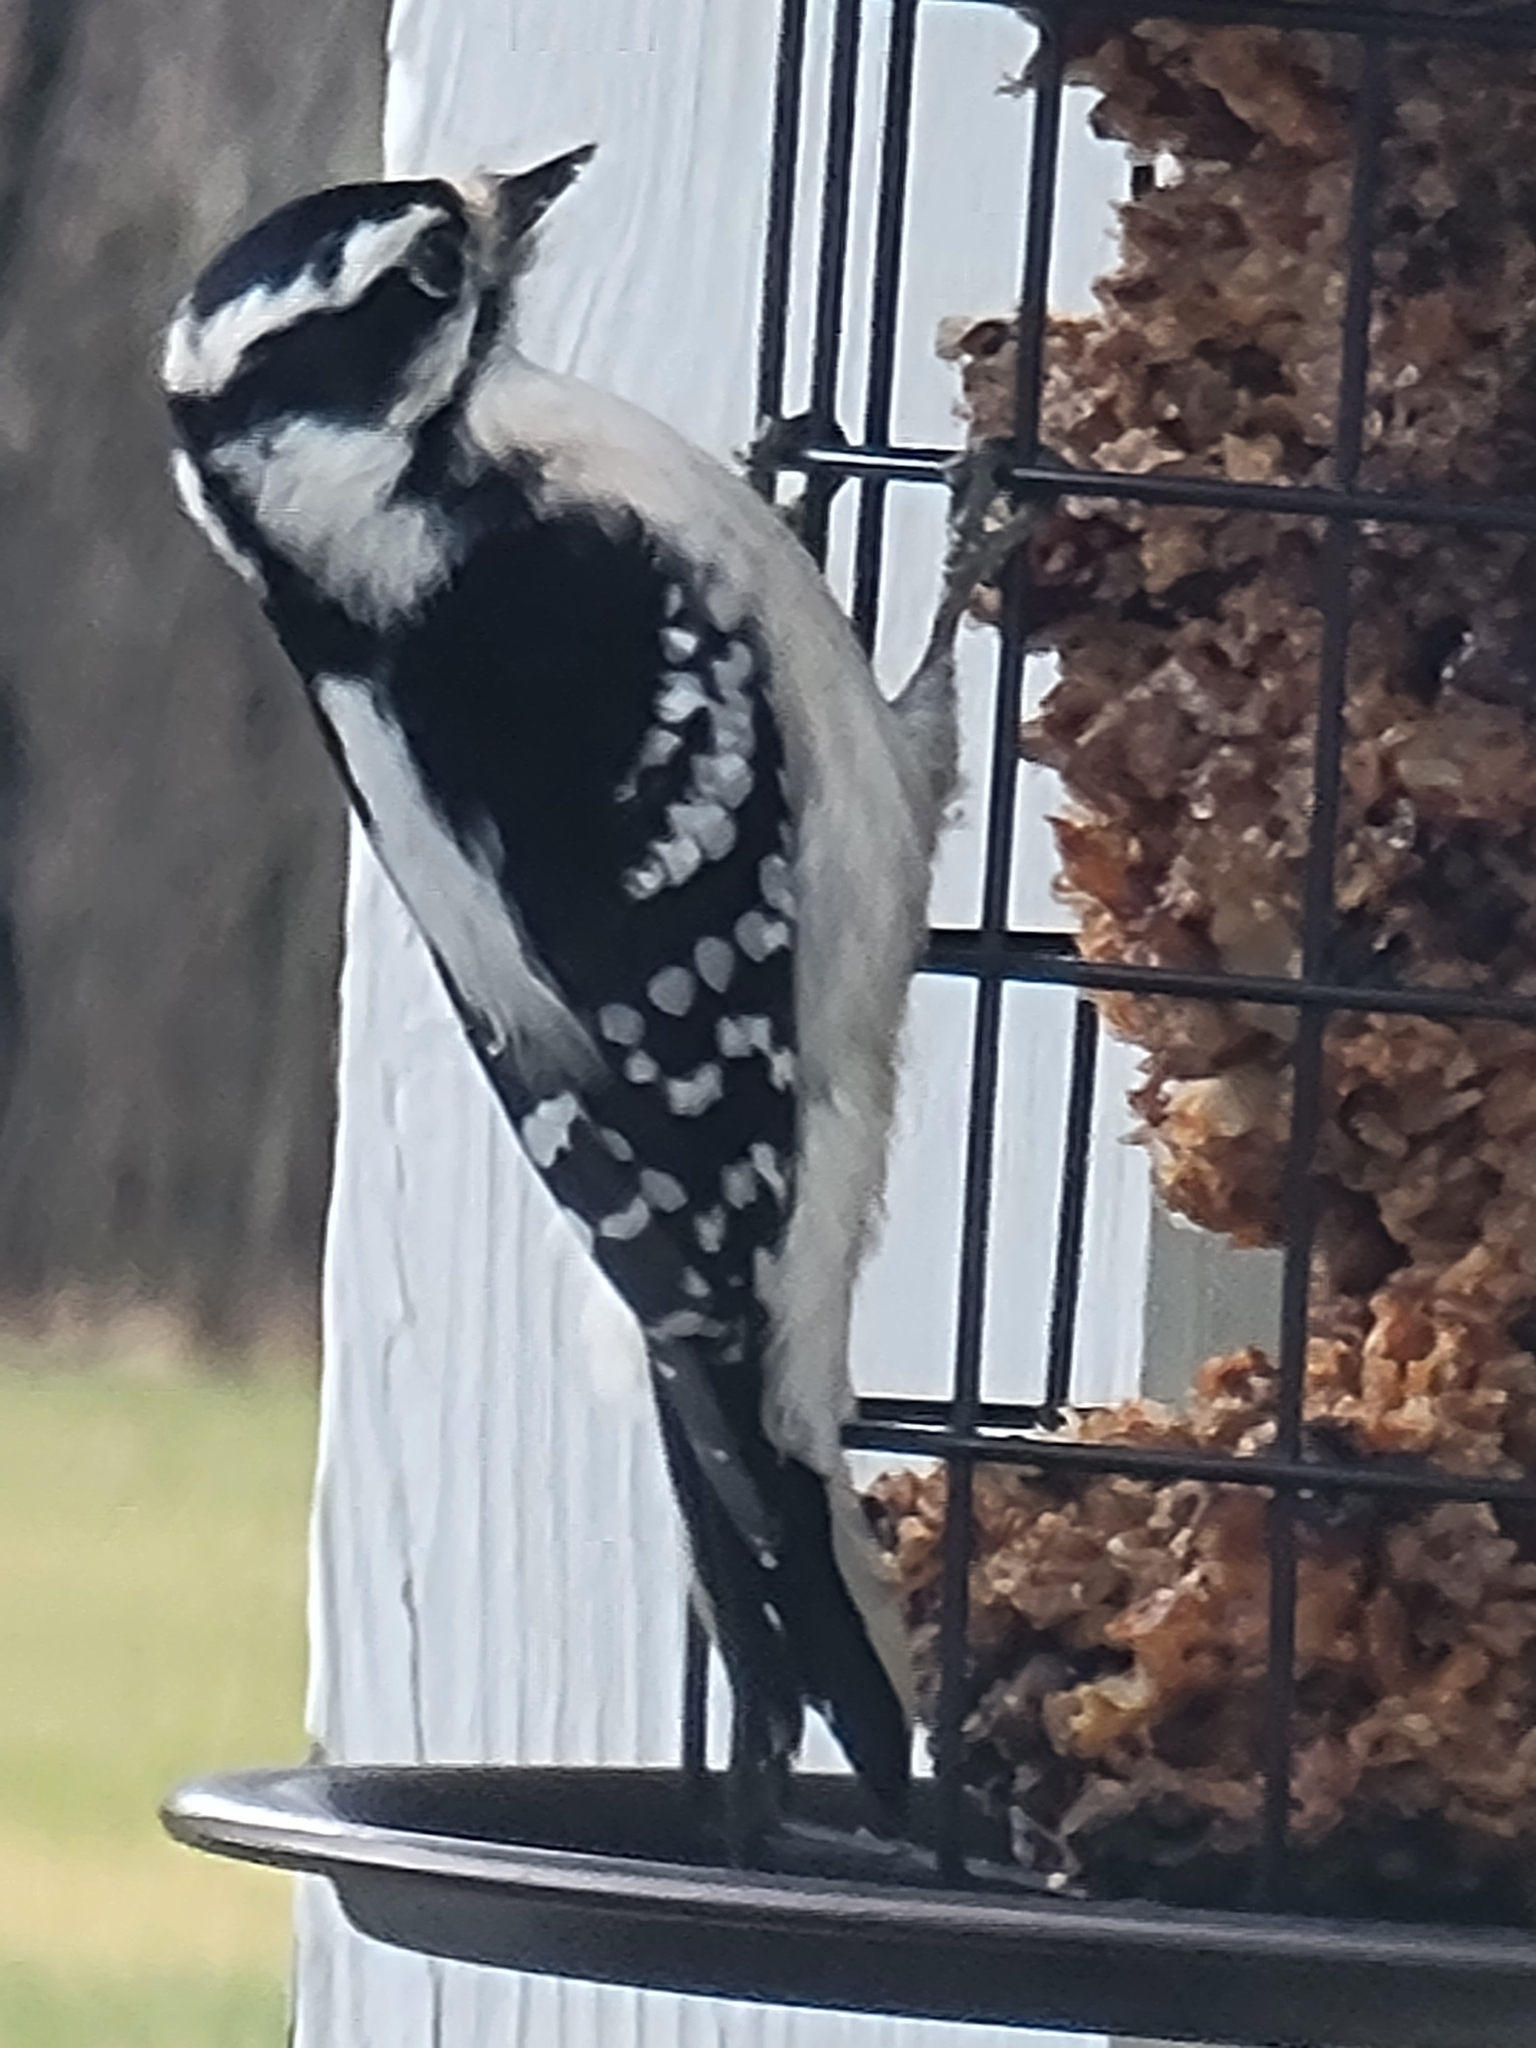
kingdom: Animalia
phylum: Chordata
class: Aves
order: Piciformes
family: Picidae
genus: Dryobates
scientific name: Dryobates pubescens
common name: Downy woodpecker
